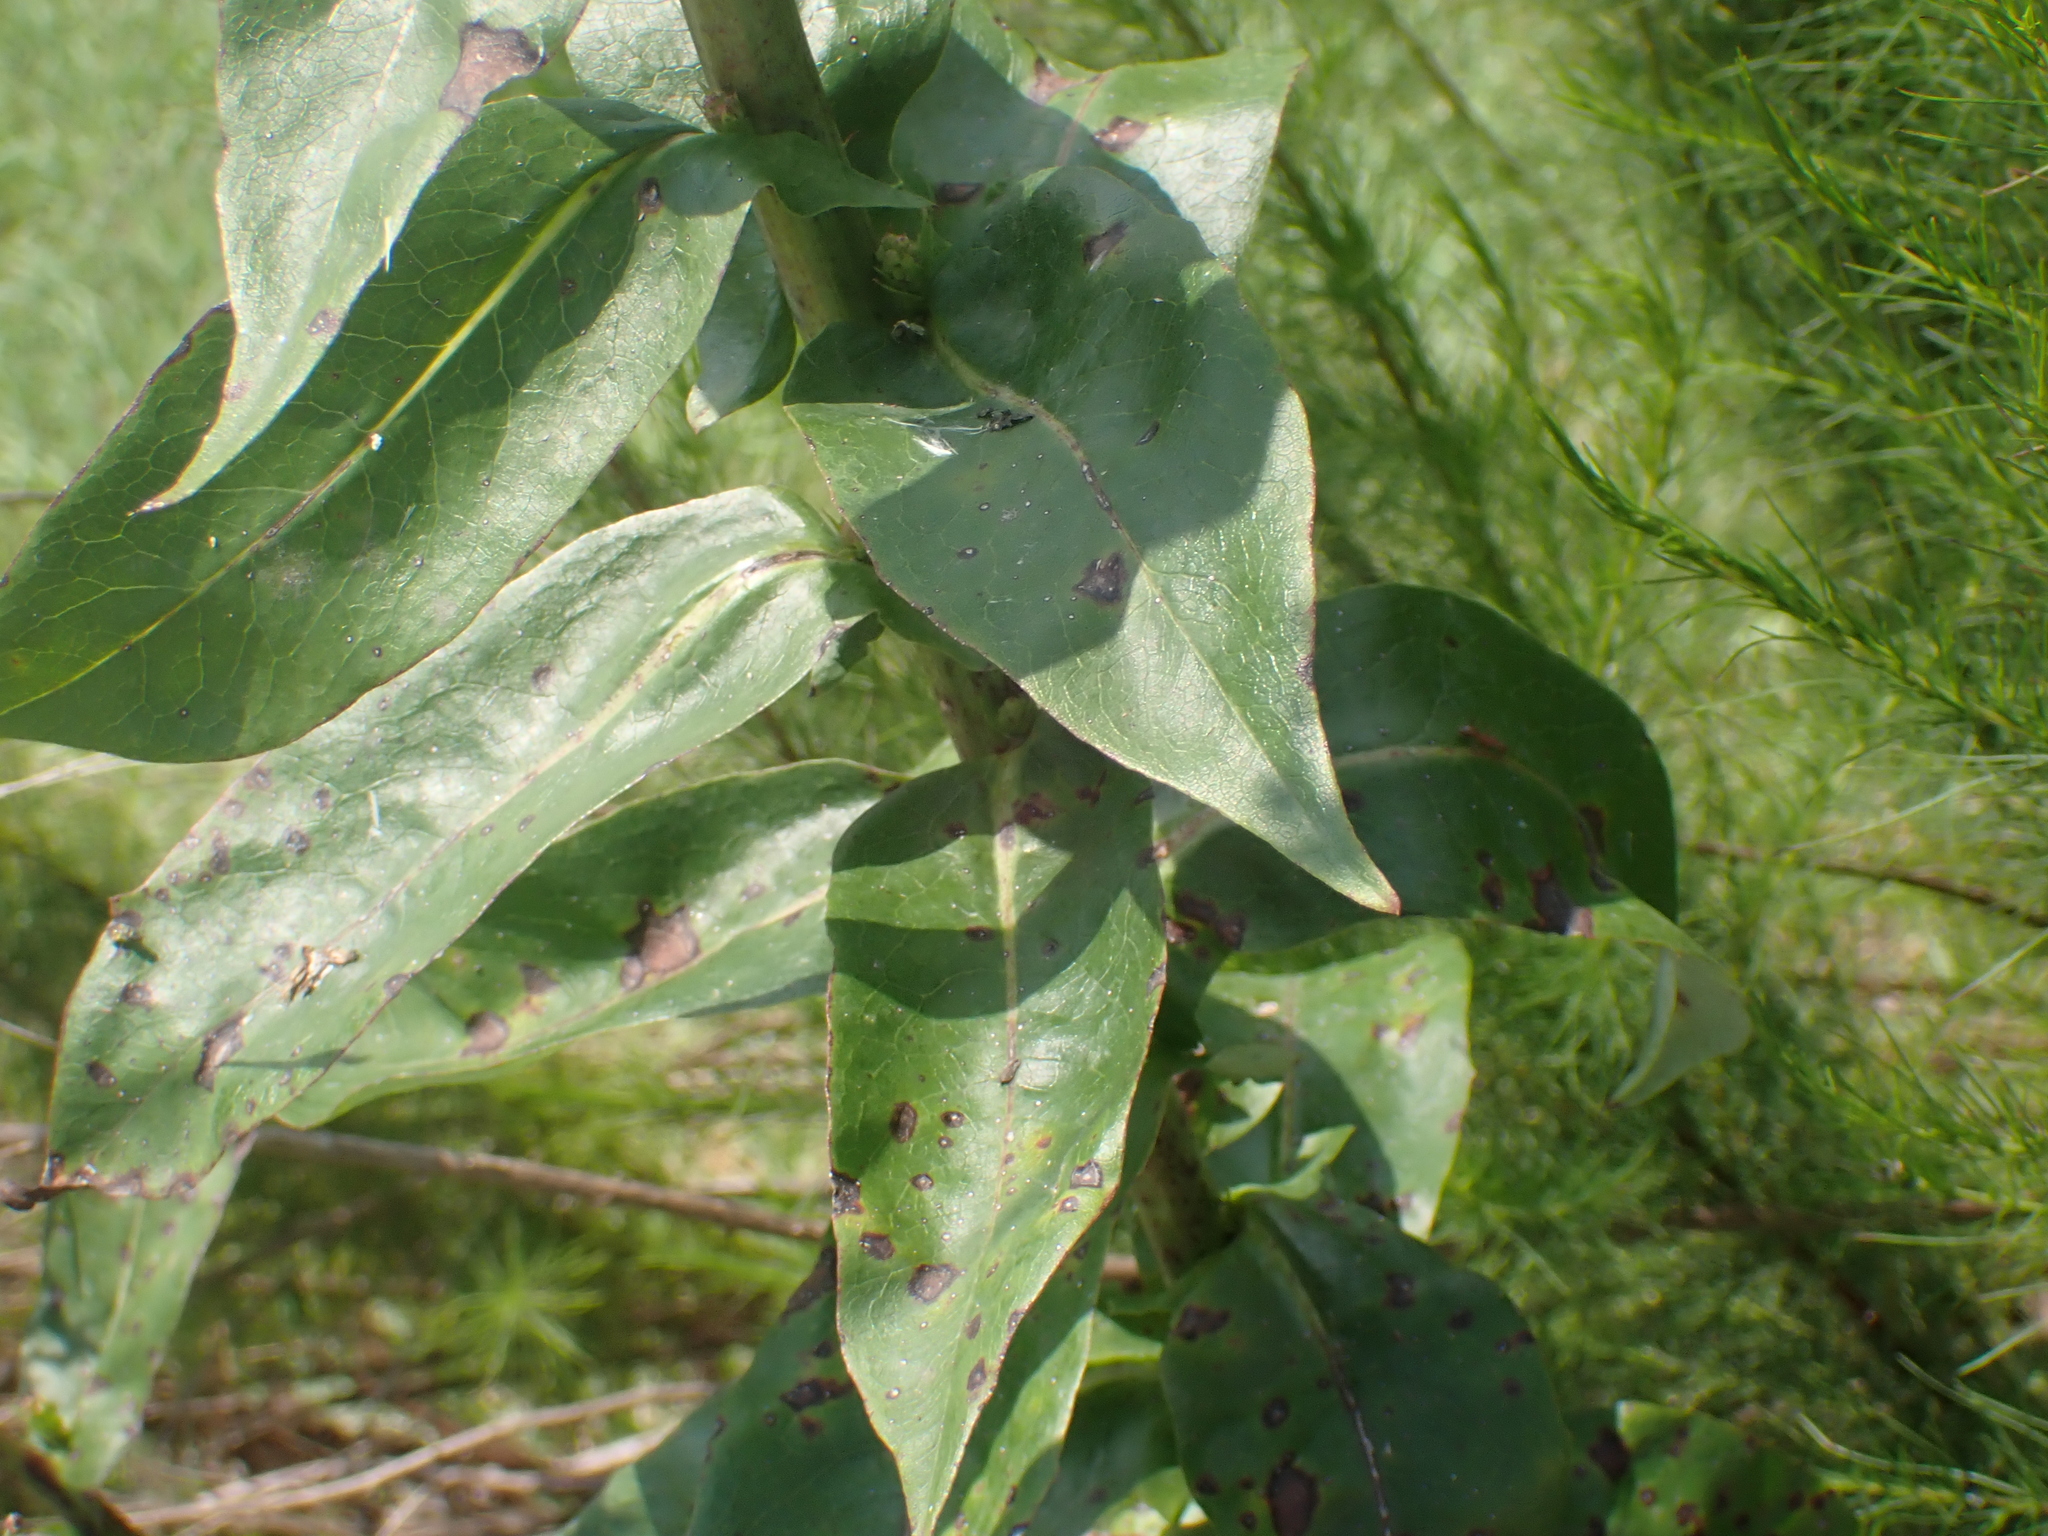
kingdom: Plantae
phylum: Tracheophyta
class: Magnoliopsida
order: Asterales
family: Asteraceae
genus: Lactuca
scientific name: Lactuca canadensis
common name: Canada lettuce
